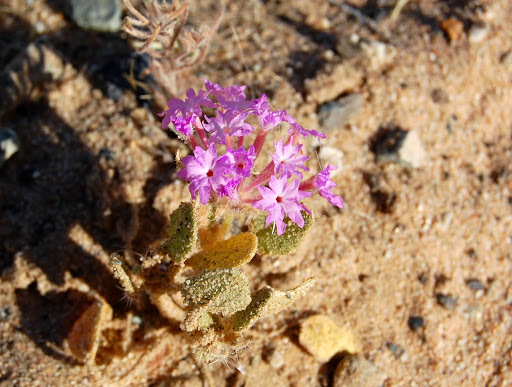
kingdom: Plantae
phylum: Tracheophyta
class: Magnoliopsida
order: Caryophyllales
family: Nyctaginaceae
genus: Abronia
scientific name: Abronia villosa
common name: Desert sand-verbena
